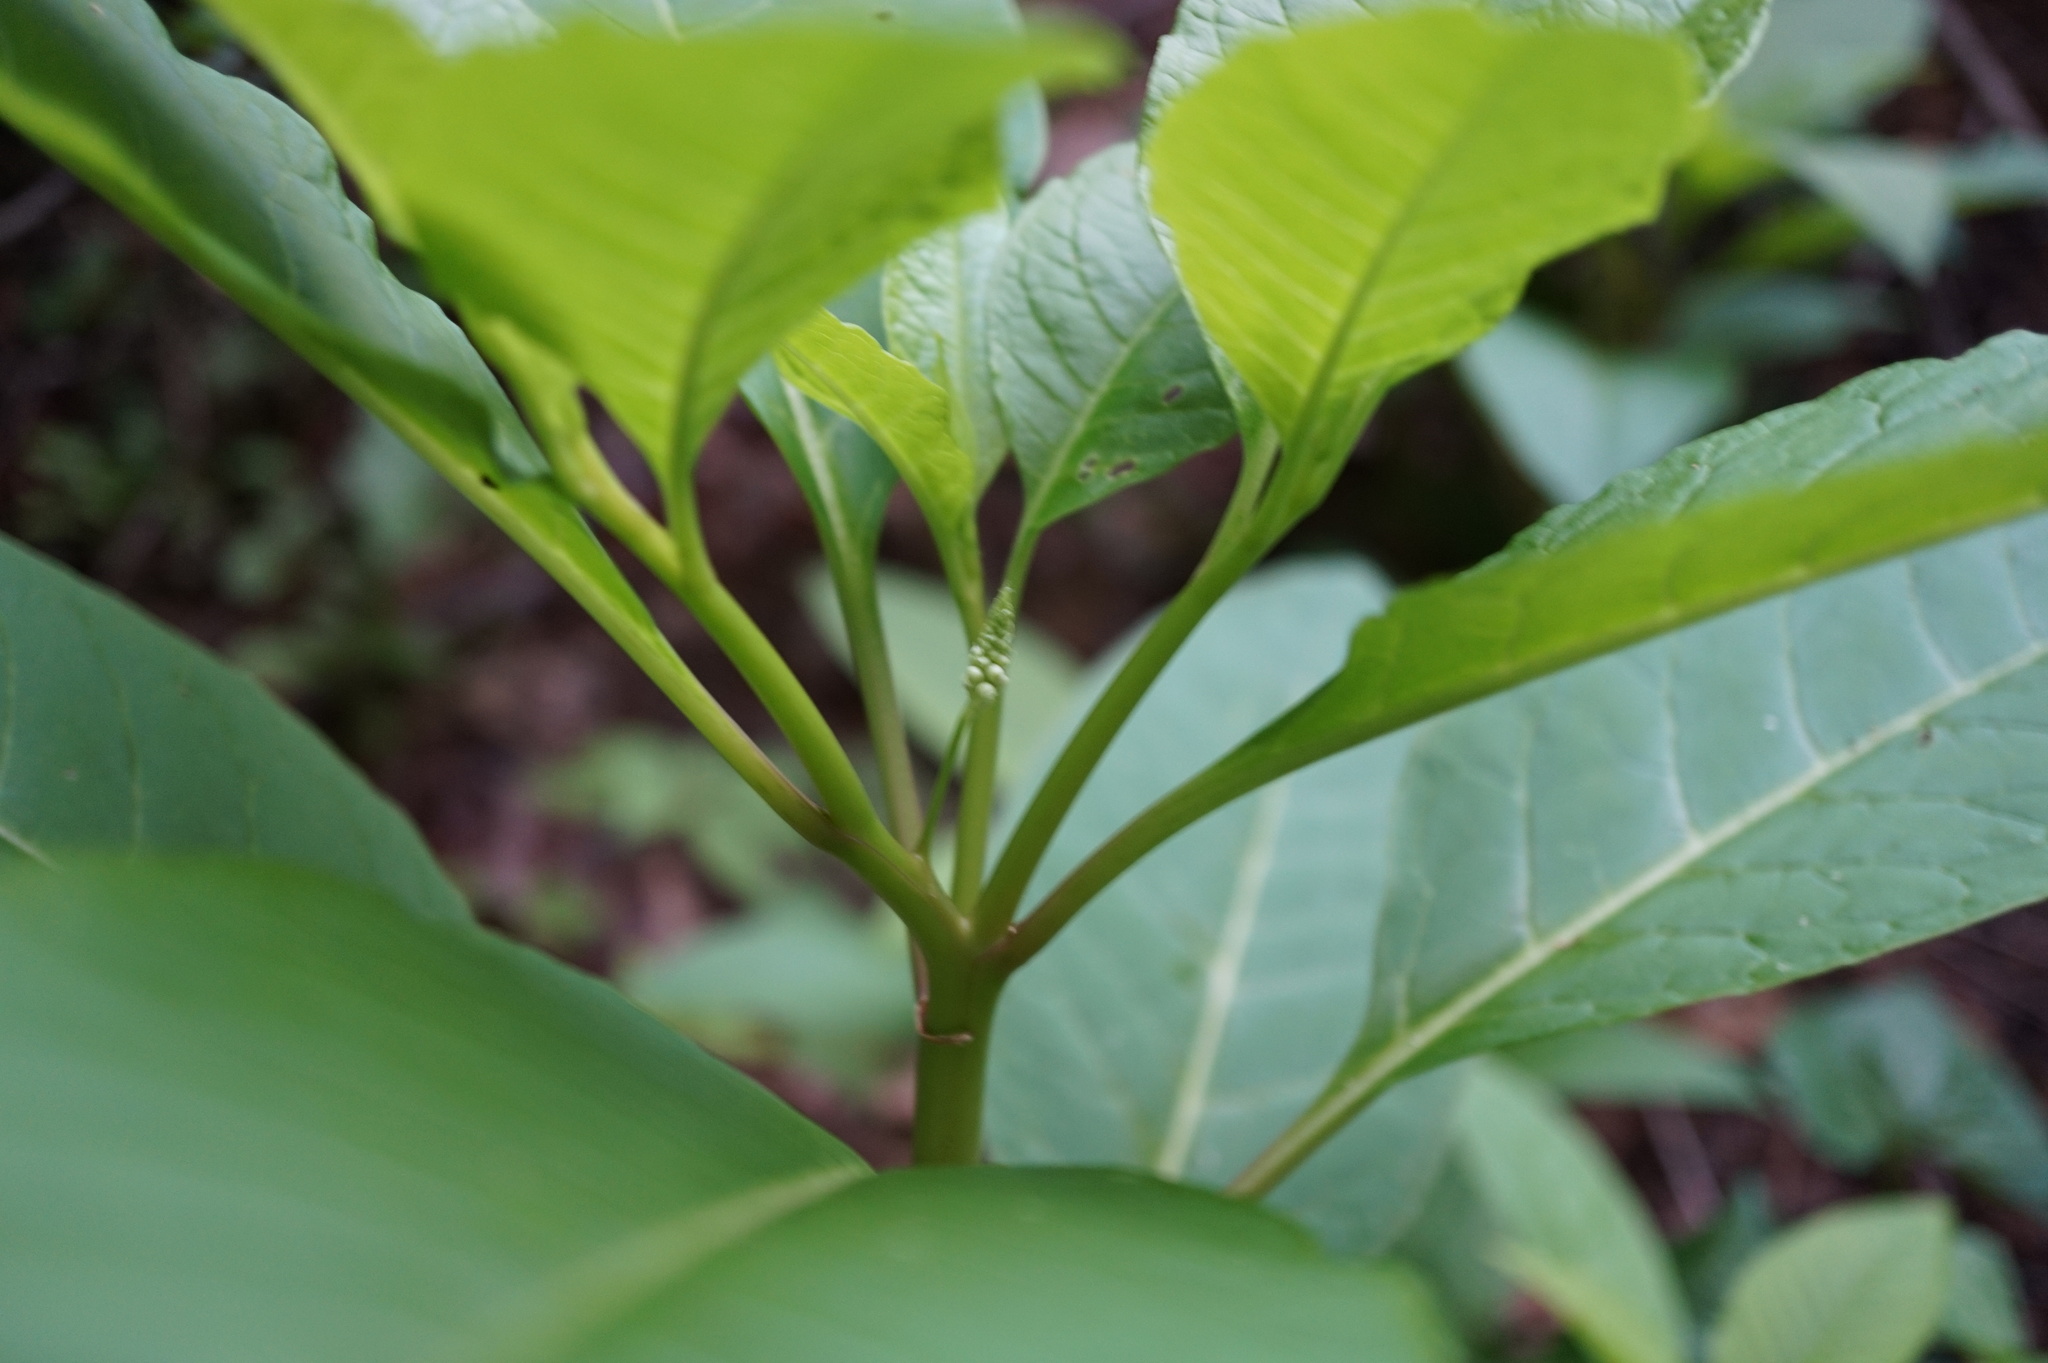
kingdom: Plantae
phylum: Tracheophyta
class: Magnoliopsida
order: Caryophyllales
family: Phytolaccaceae
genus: Phytolacca
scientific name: Phytolacca americana
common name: American pokeweed
